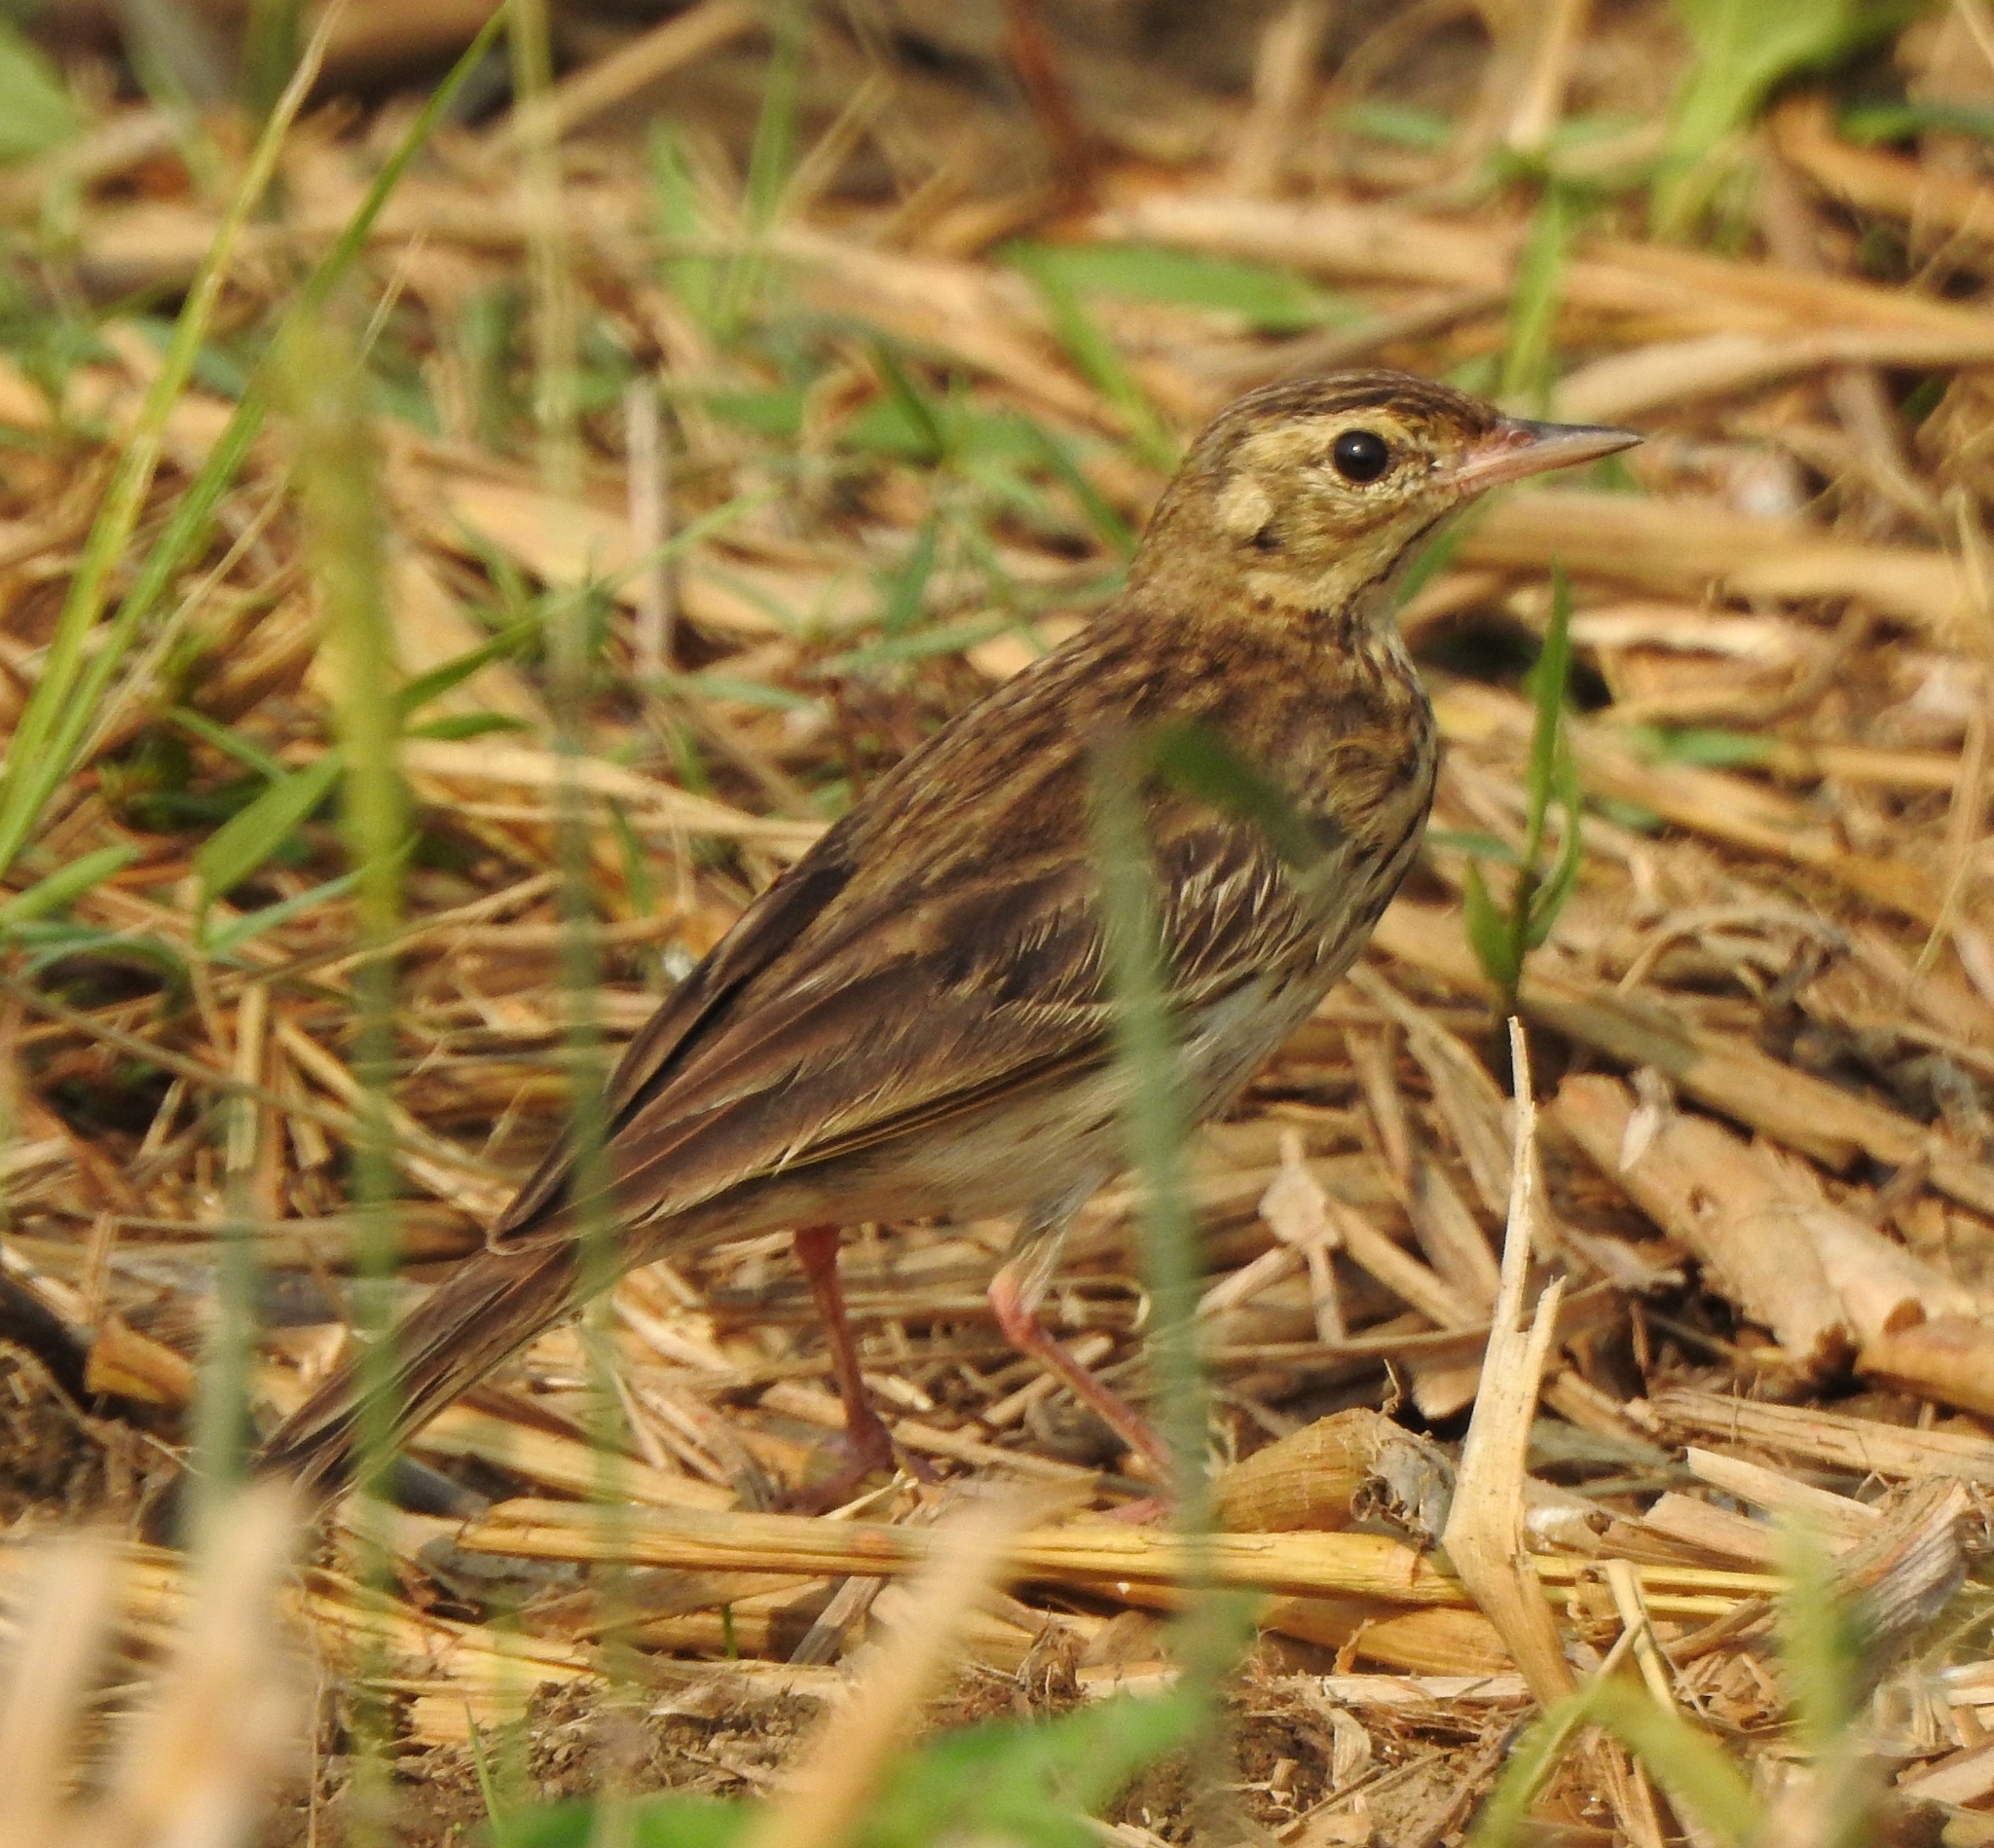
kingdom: Animalia
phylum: Chordata
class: Aves
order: Passeriformes
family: Motacillidae
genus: Anthus
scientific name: Anthus trivialis
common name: Tree pipit
